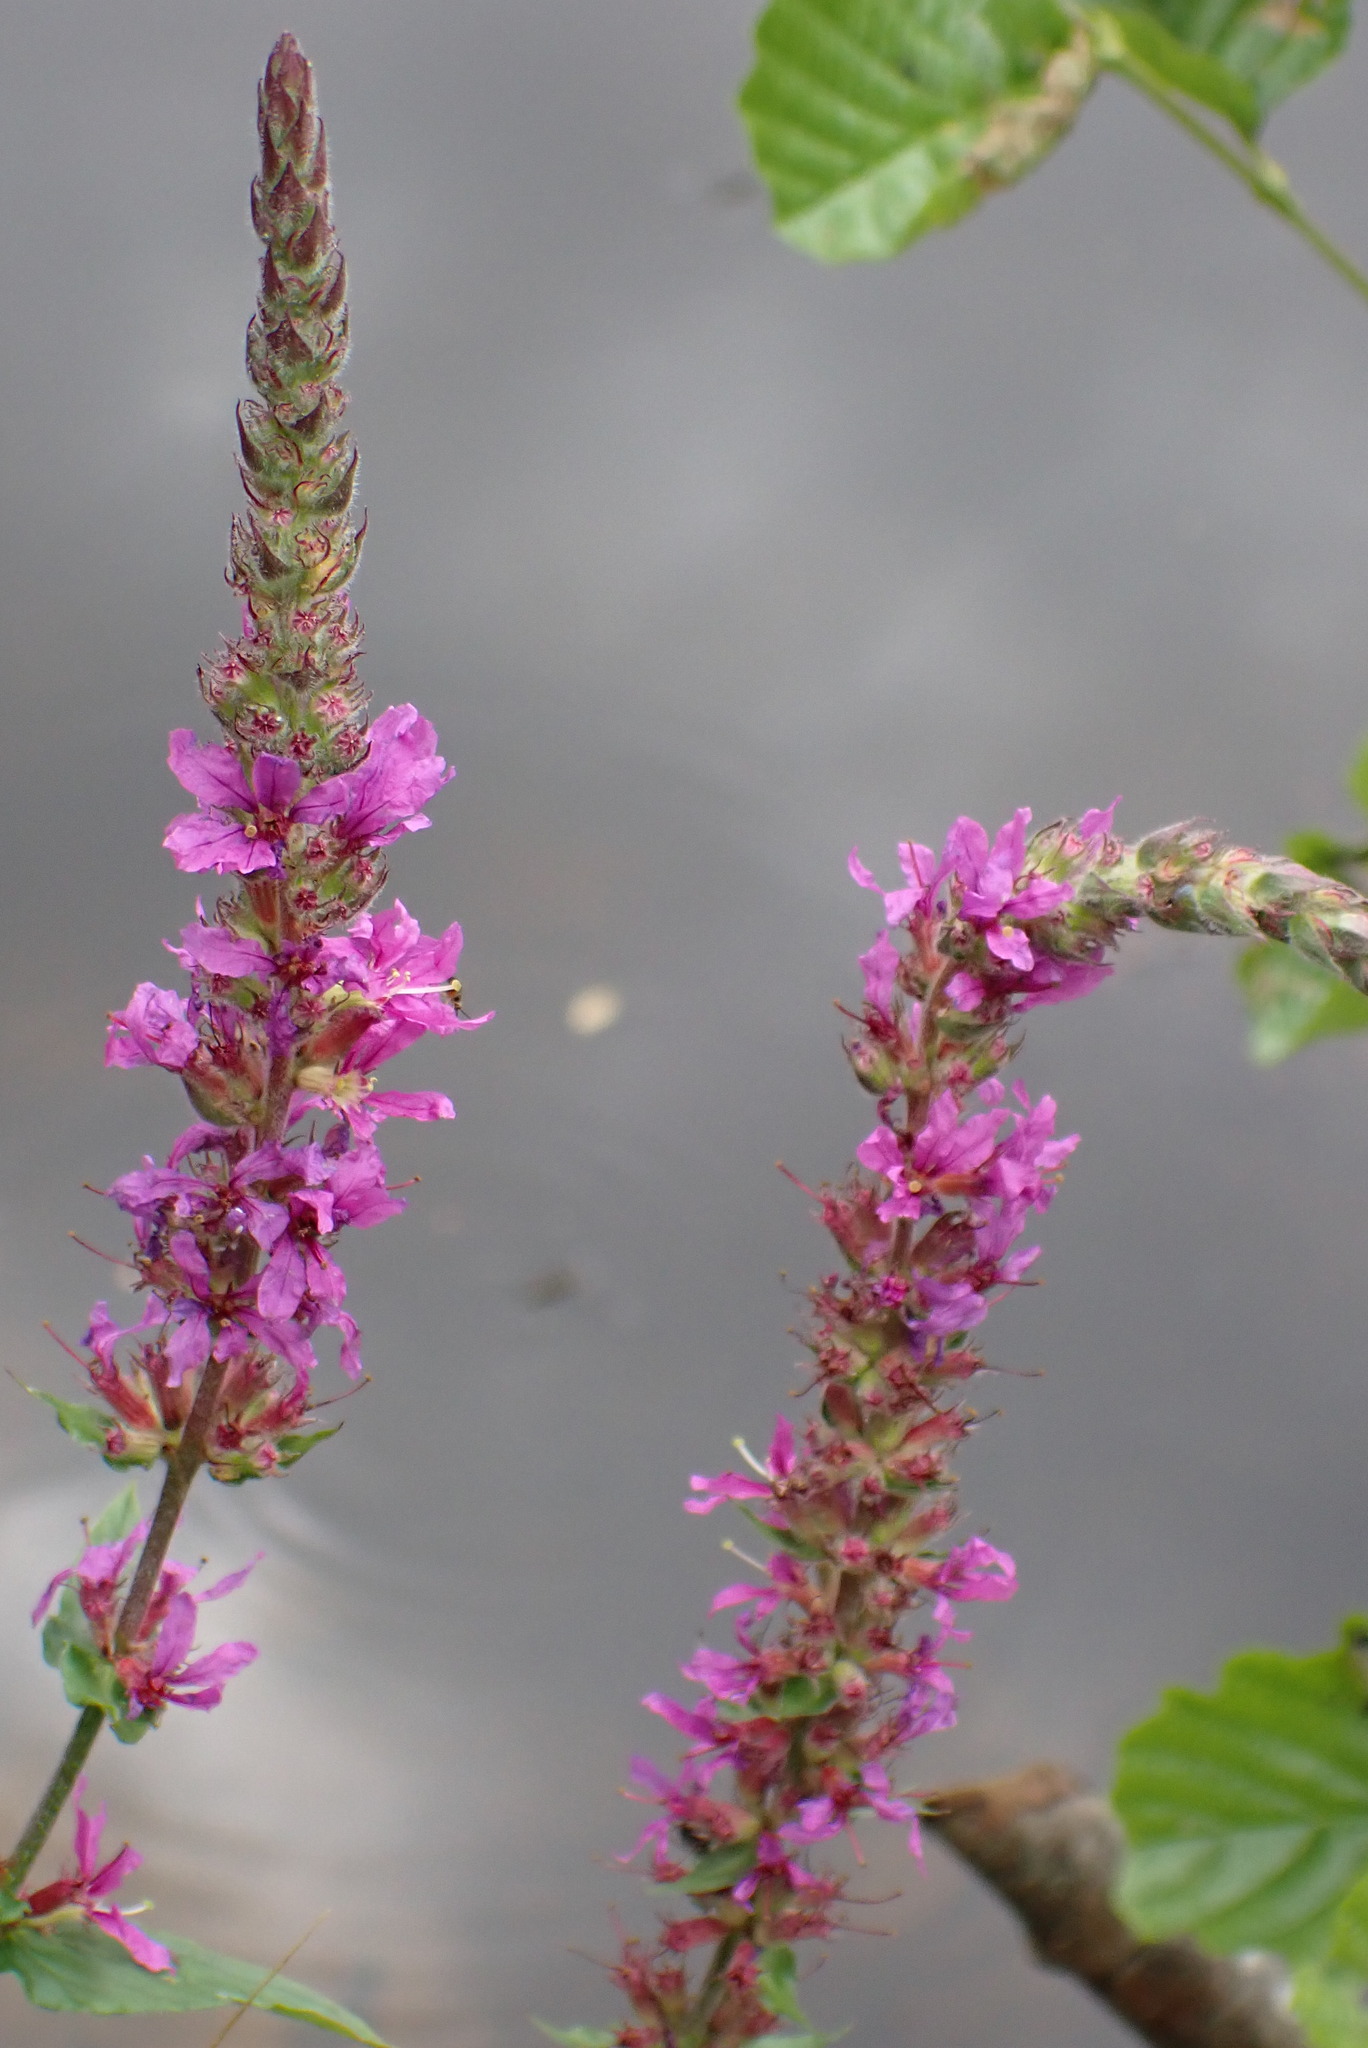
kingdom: Plantae
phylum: Tracheophyta
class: Magnoliopsida
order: Myrtales
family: Lythraceae
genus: Lythrum
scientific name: Lythrum salicaria
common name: Purple loosestrife
